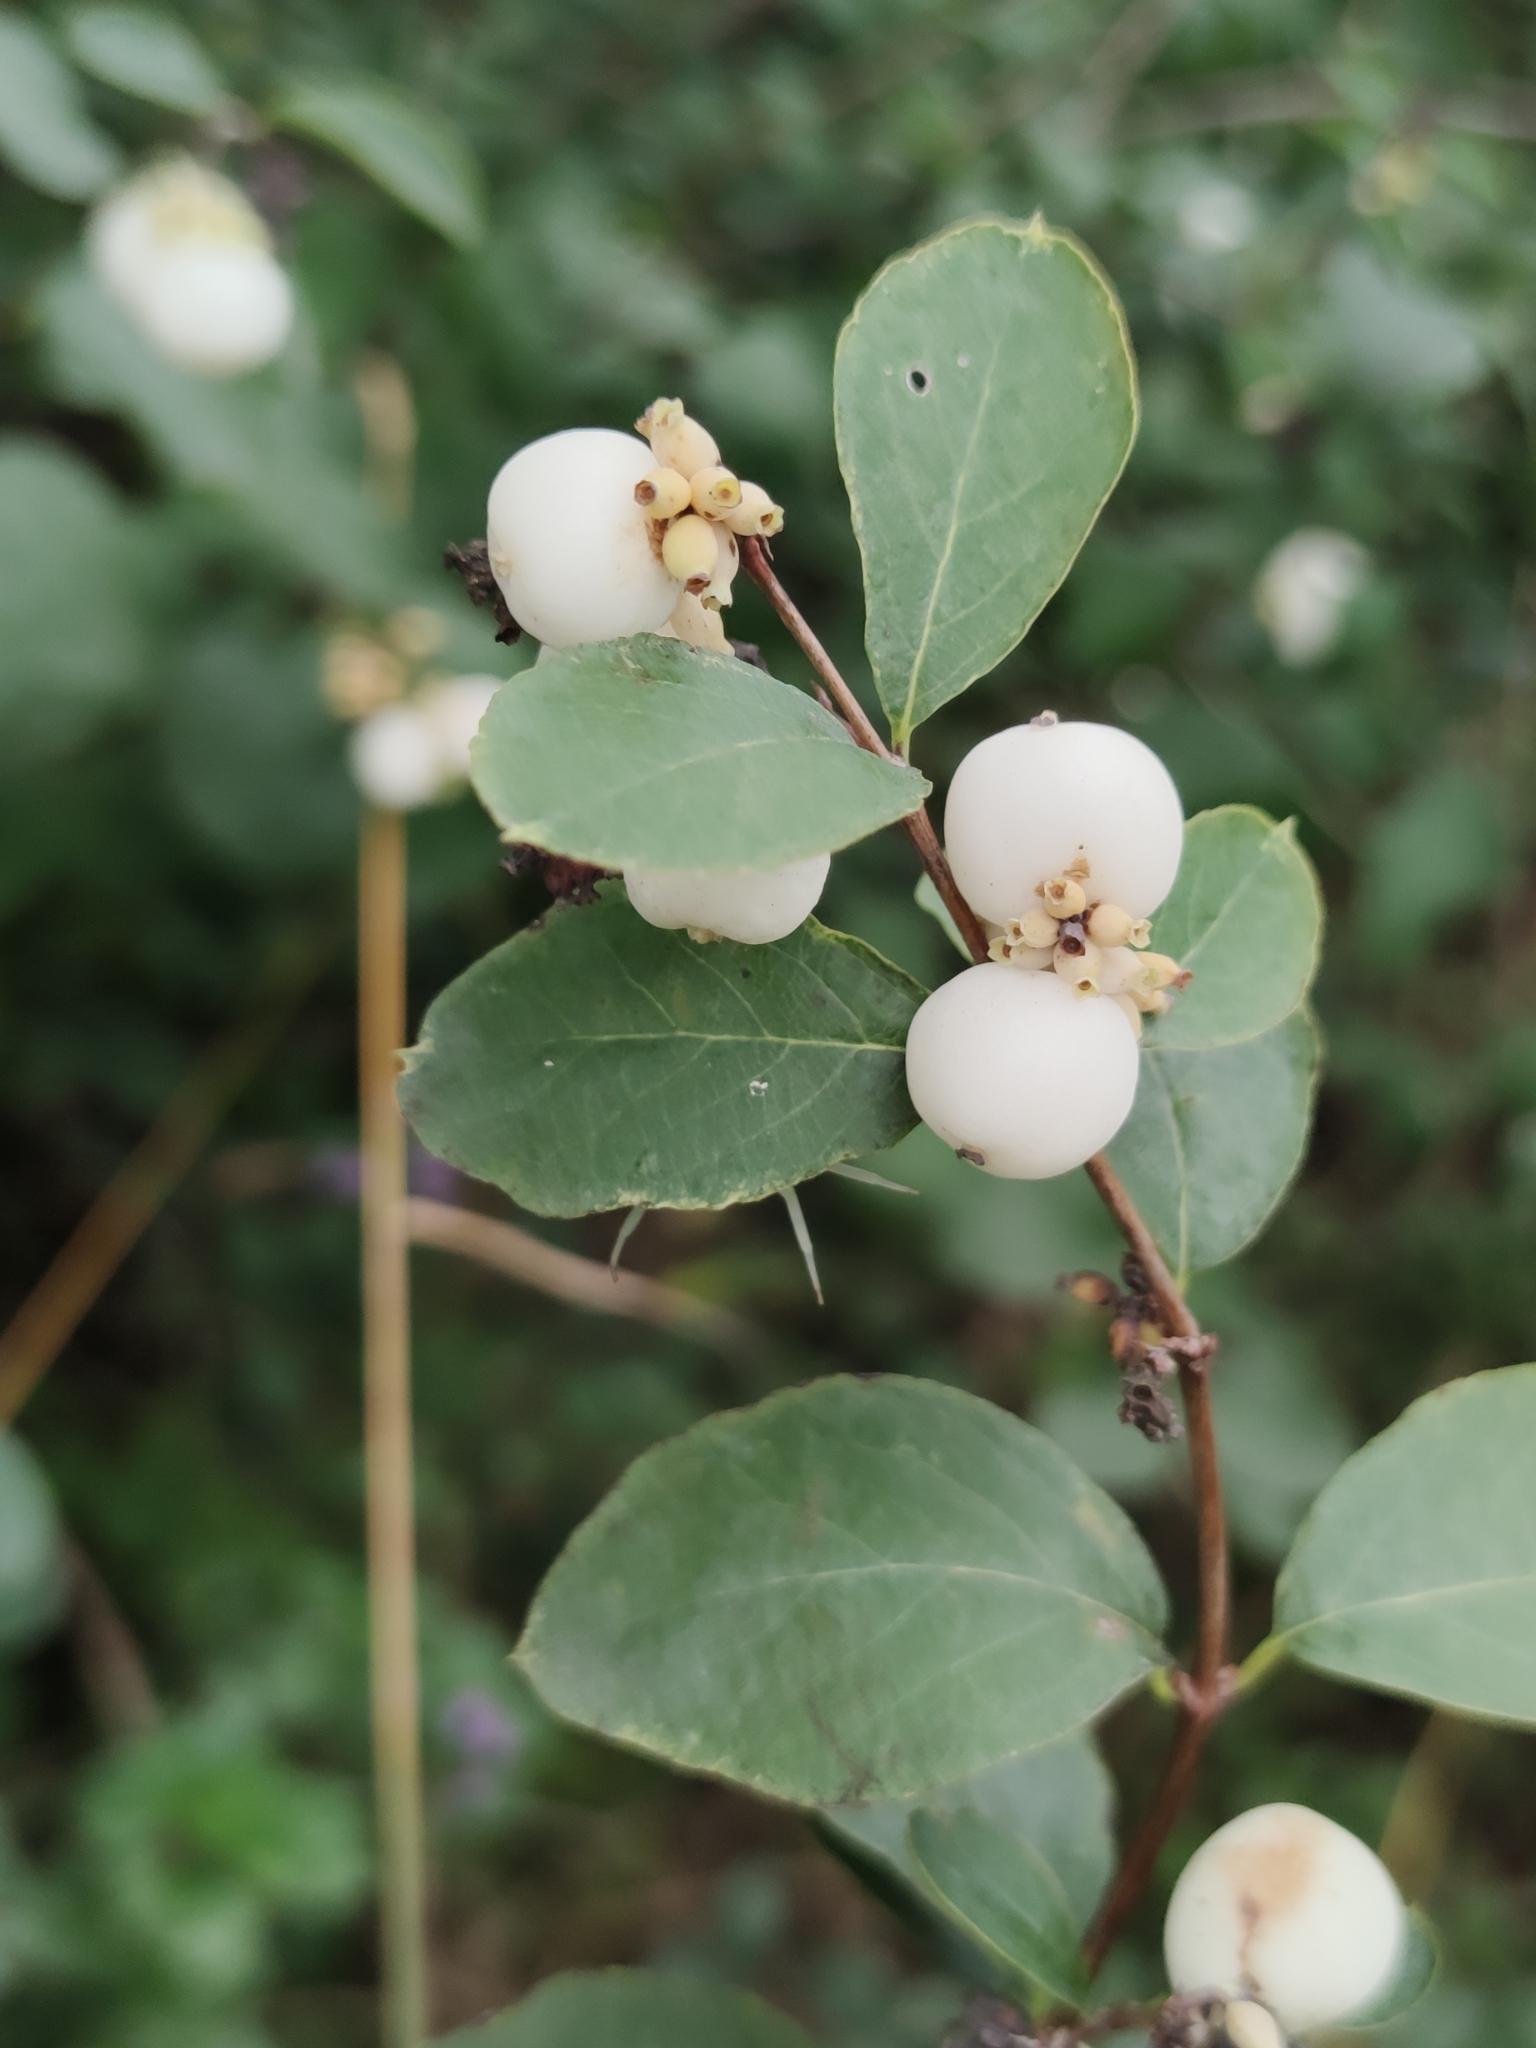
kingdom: Plantae
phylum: Tracheophyta
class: Magnoliopsida
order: Dipsacales
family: Caprifoliaceae
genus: Symphoricarpos
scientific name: Symphoricarpos albus
